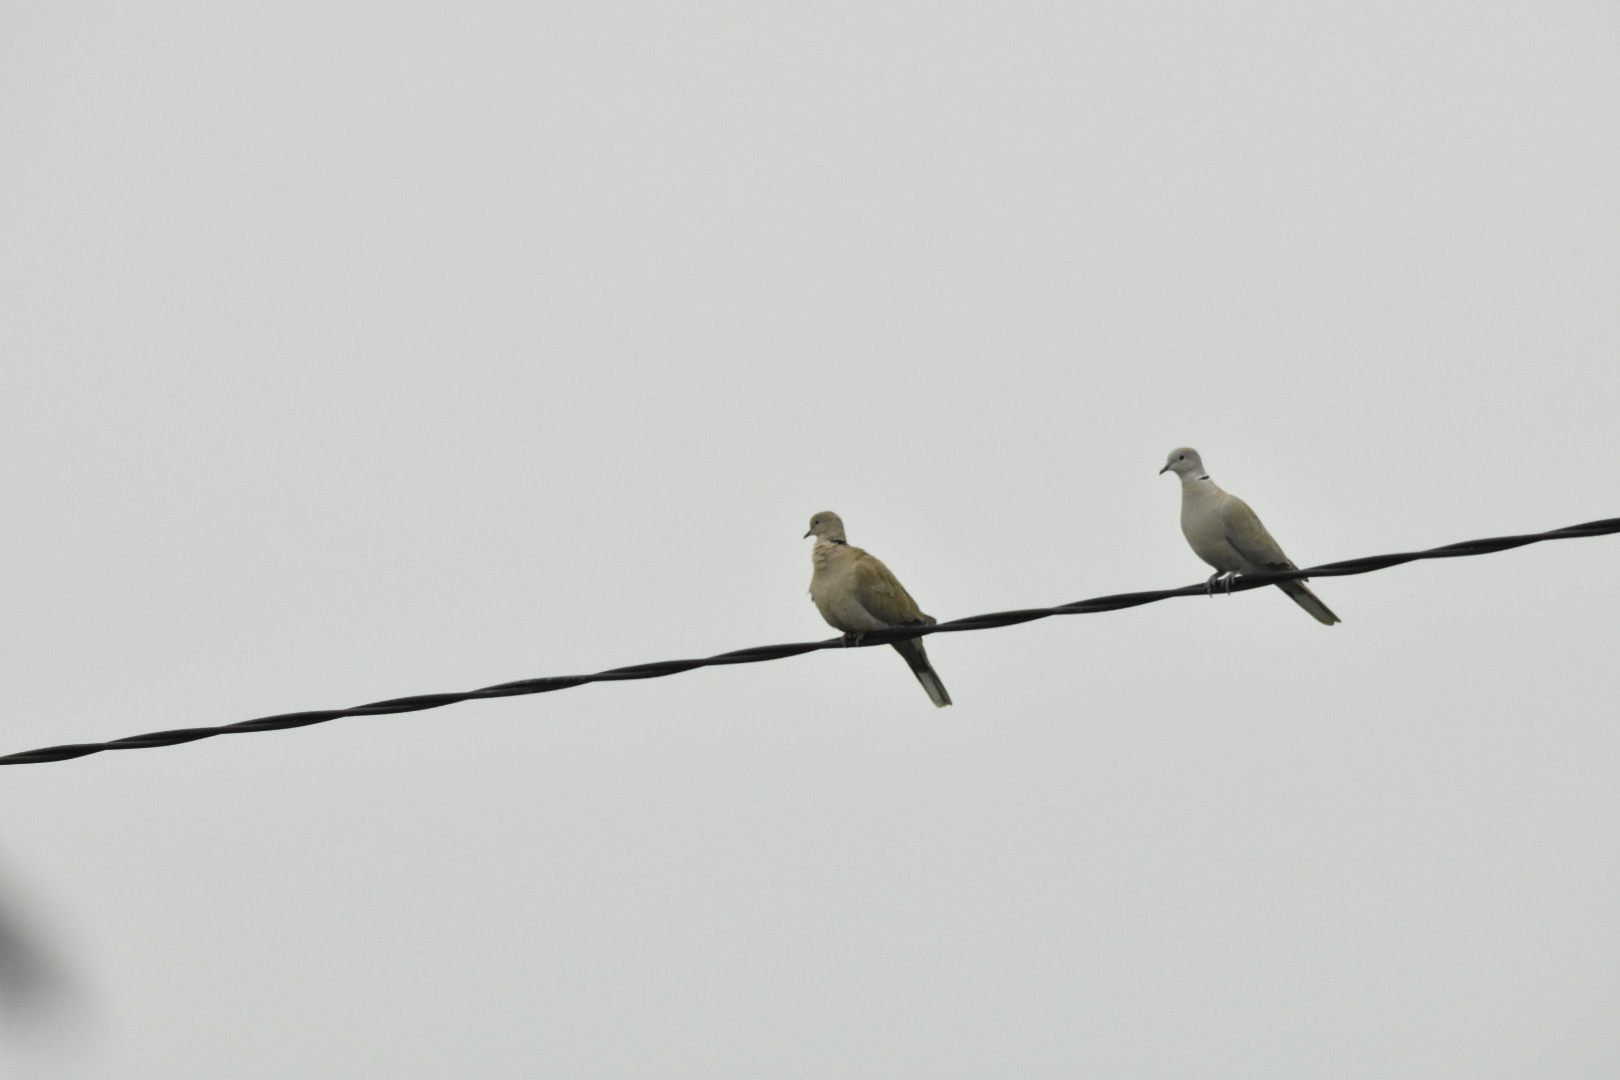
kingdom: Animalia
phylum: Chordata
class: Aves
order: Columbiformes
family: Columbidae
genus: Streptopelia
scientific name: Streptopelia decaocto
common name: Eurasian collared dove
